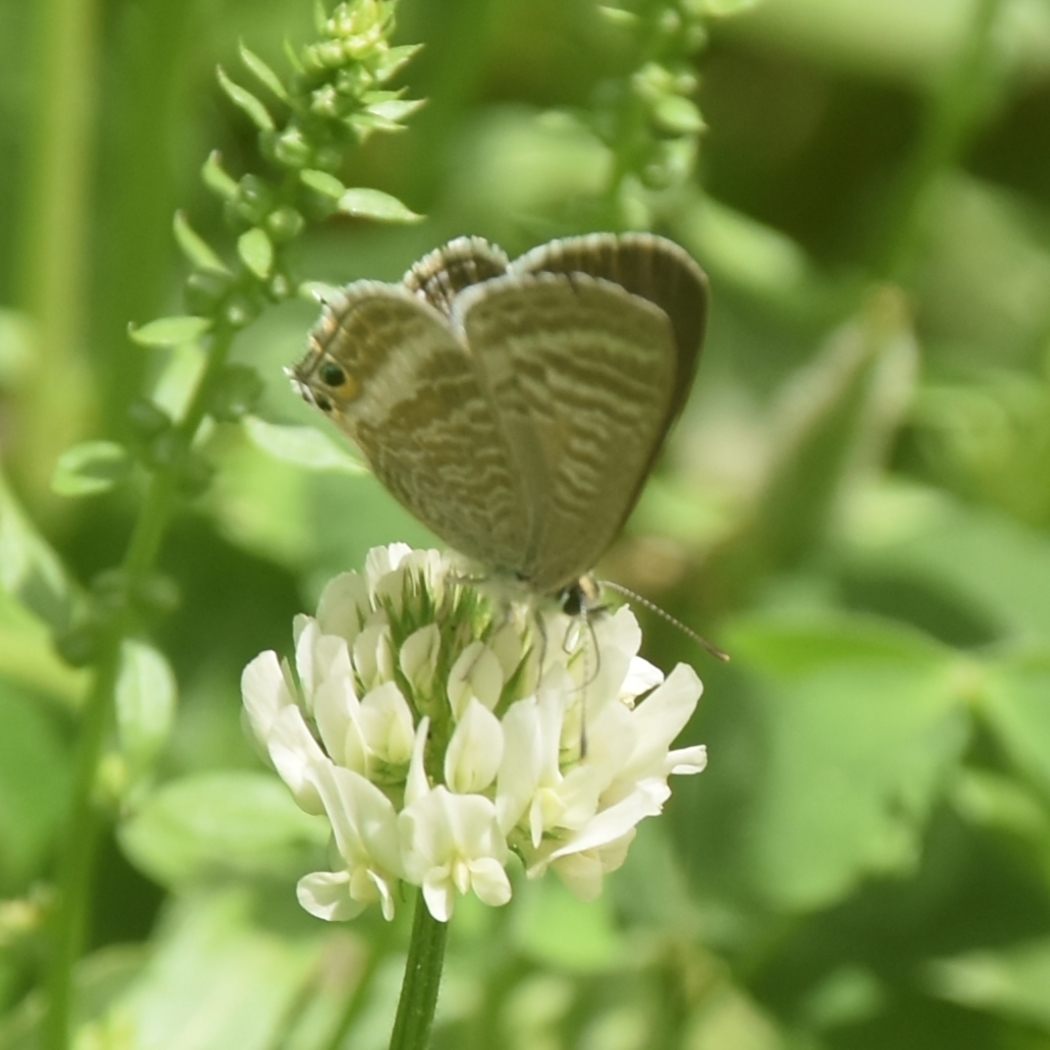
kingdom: Animalia
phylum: Arthropoda
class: Insecta
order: Lepidoptera
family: Lycaenidae
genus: Lampides
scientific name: Lampides boeticus
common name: Long-tailed blue
